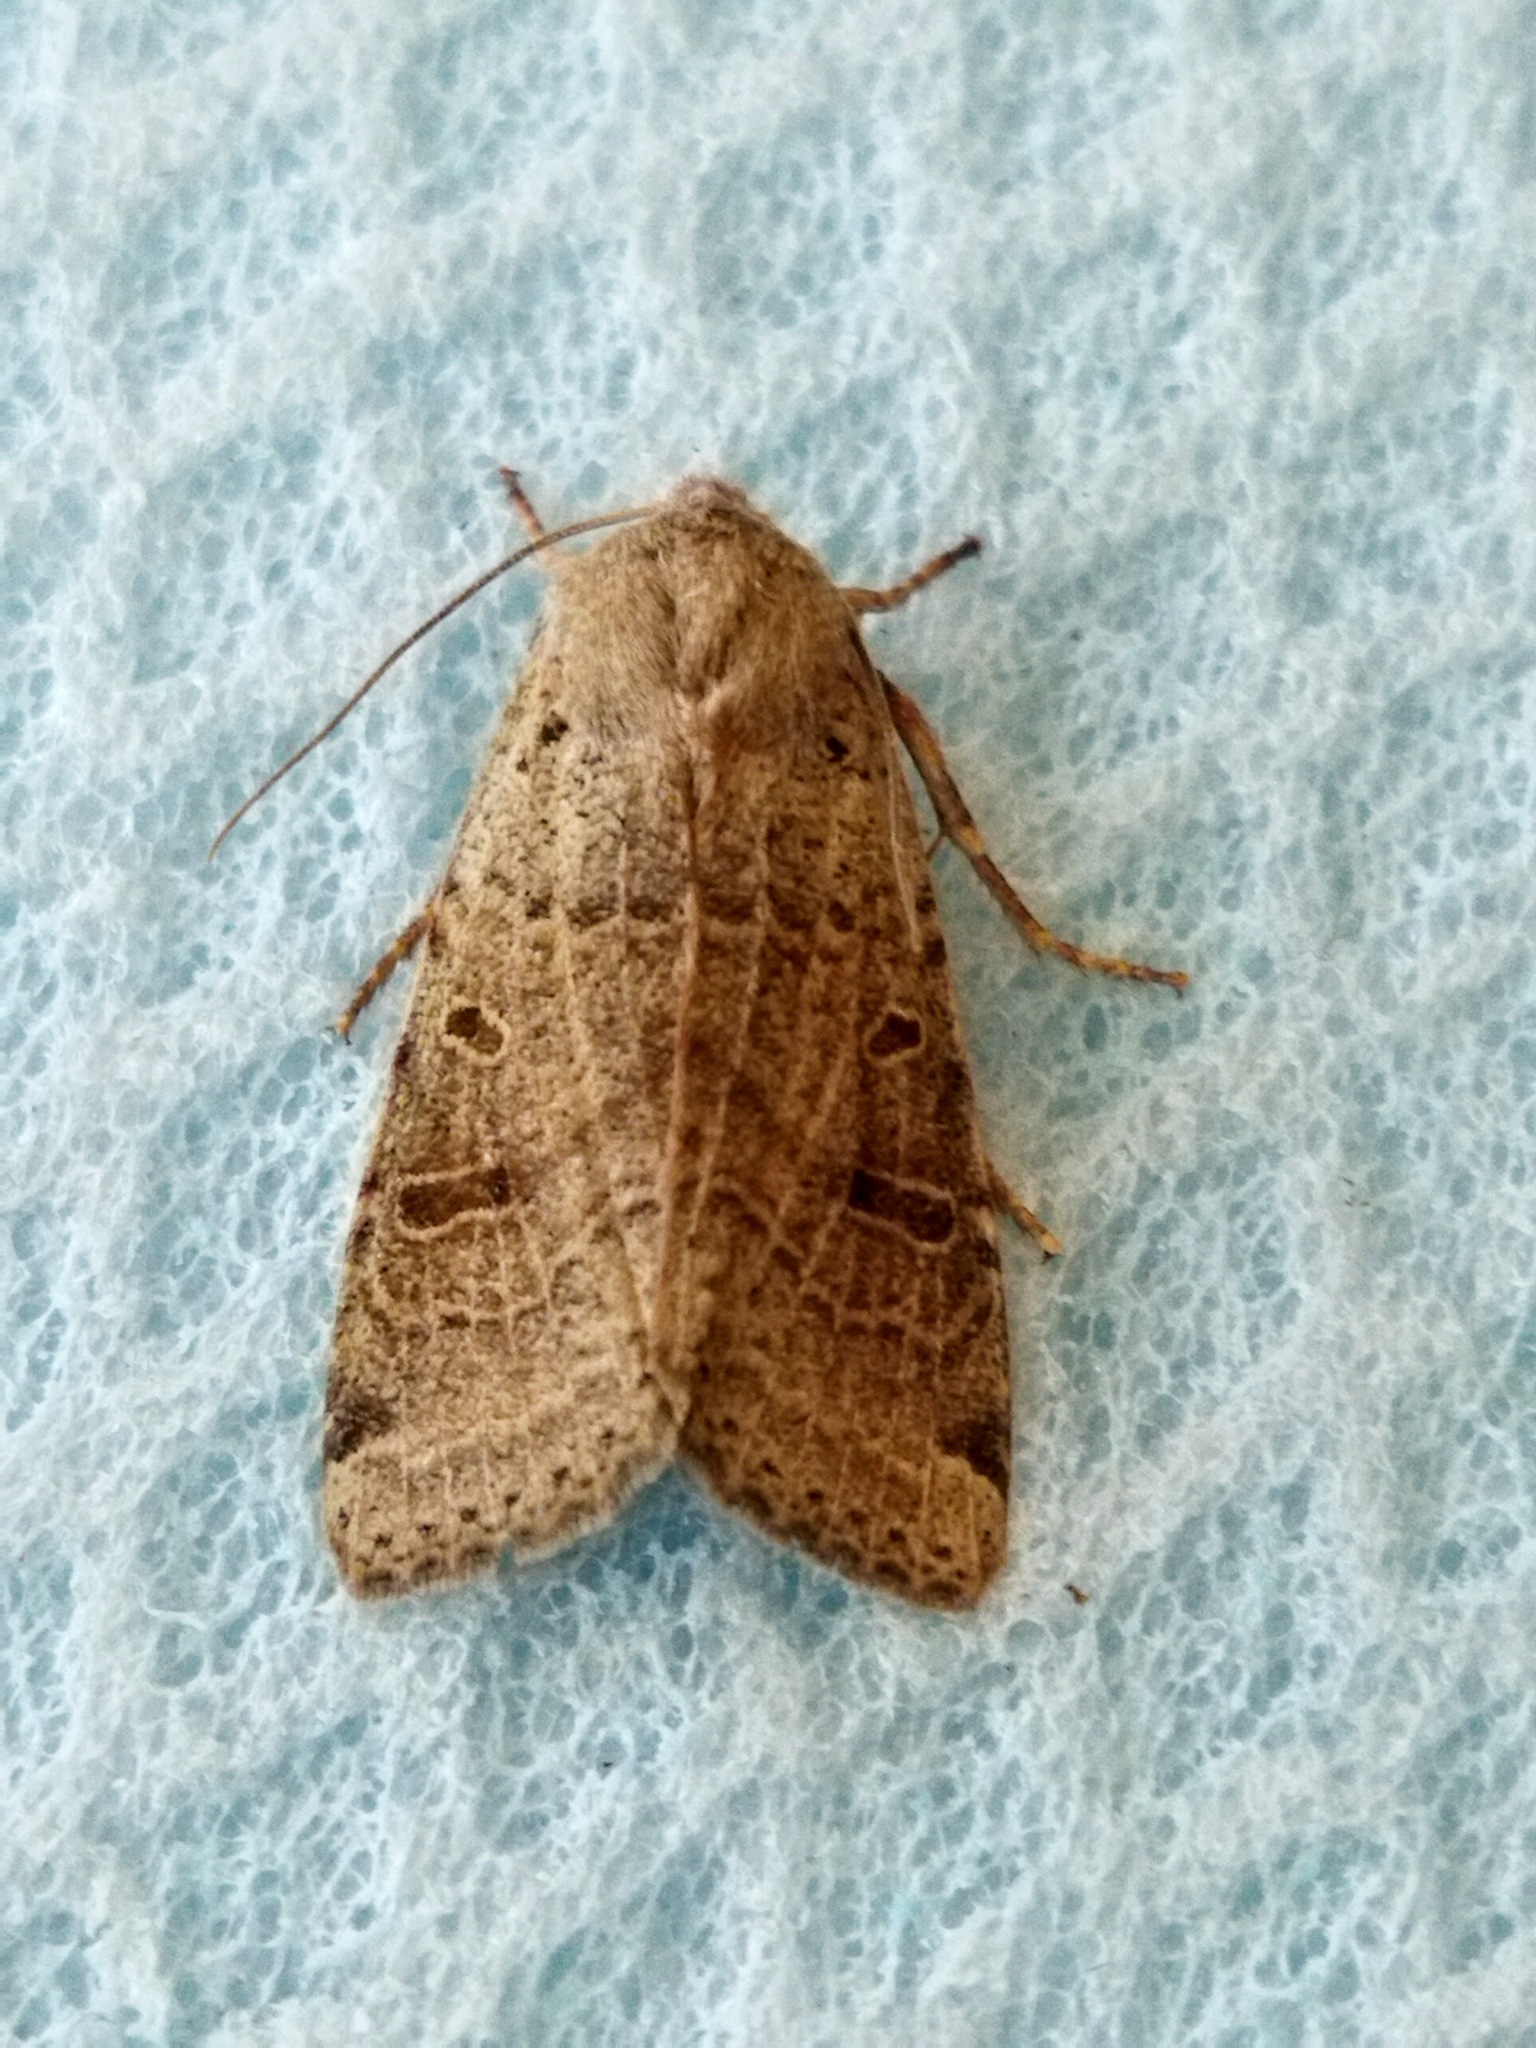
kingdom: Animalia
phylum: Arthropoda
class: Insecta
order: Lepidoptera
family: Noctuidae
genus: Agrochola
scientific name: Agrochola lychnidis
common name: Beaded chestnut
